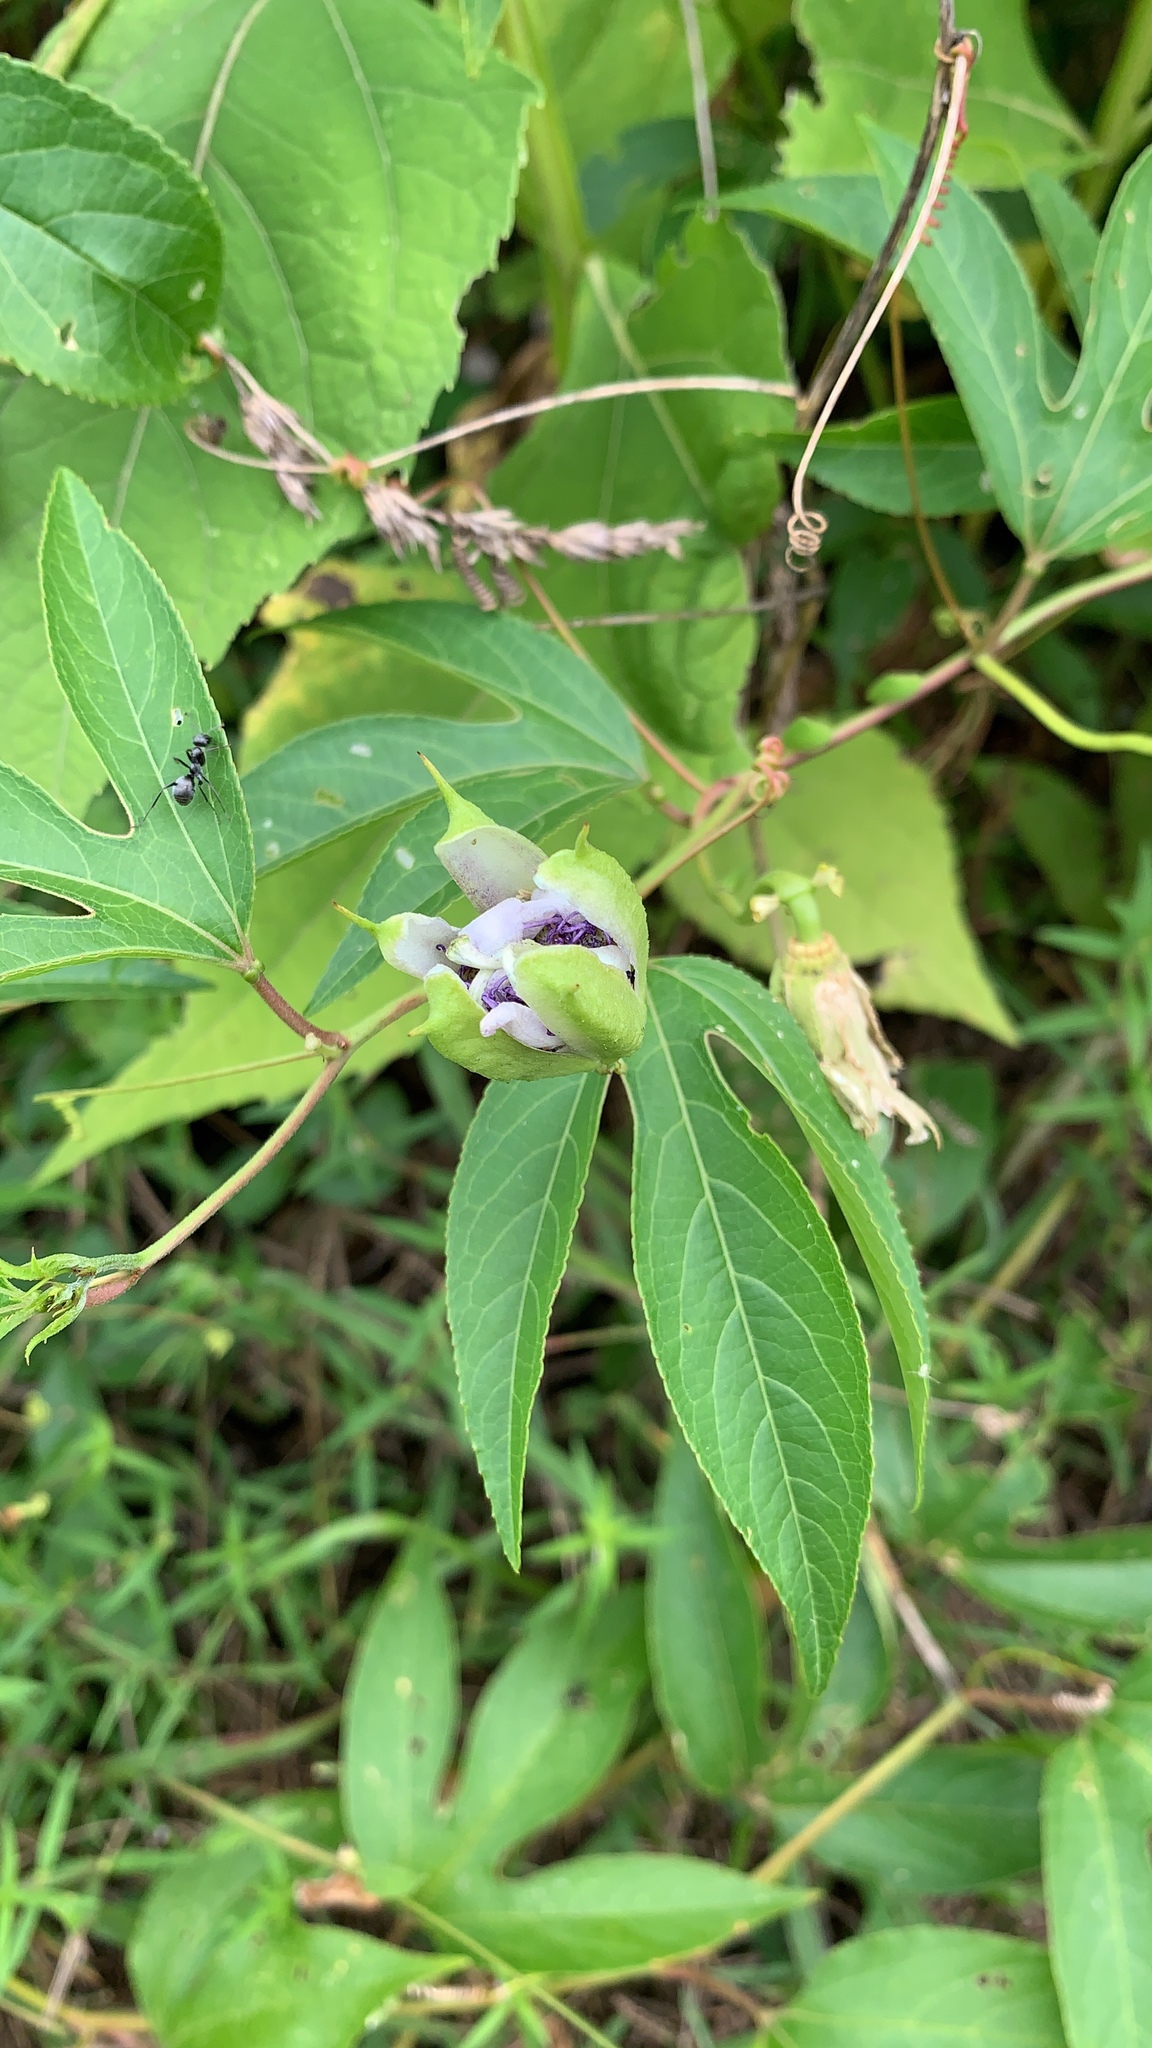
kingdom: Plantae
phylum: Tracheophyta
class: Magnoliopsida
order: Malpighiales
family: Passifloraceae
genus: Passiflora
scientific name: Passiflora incarnata
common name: Apricot-vine
